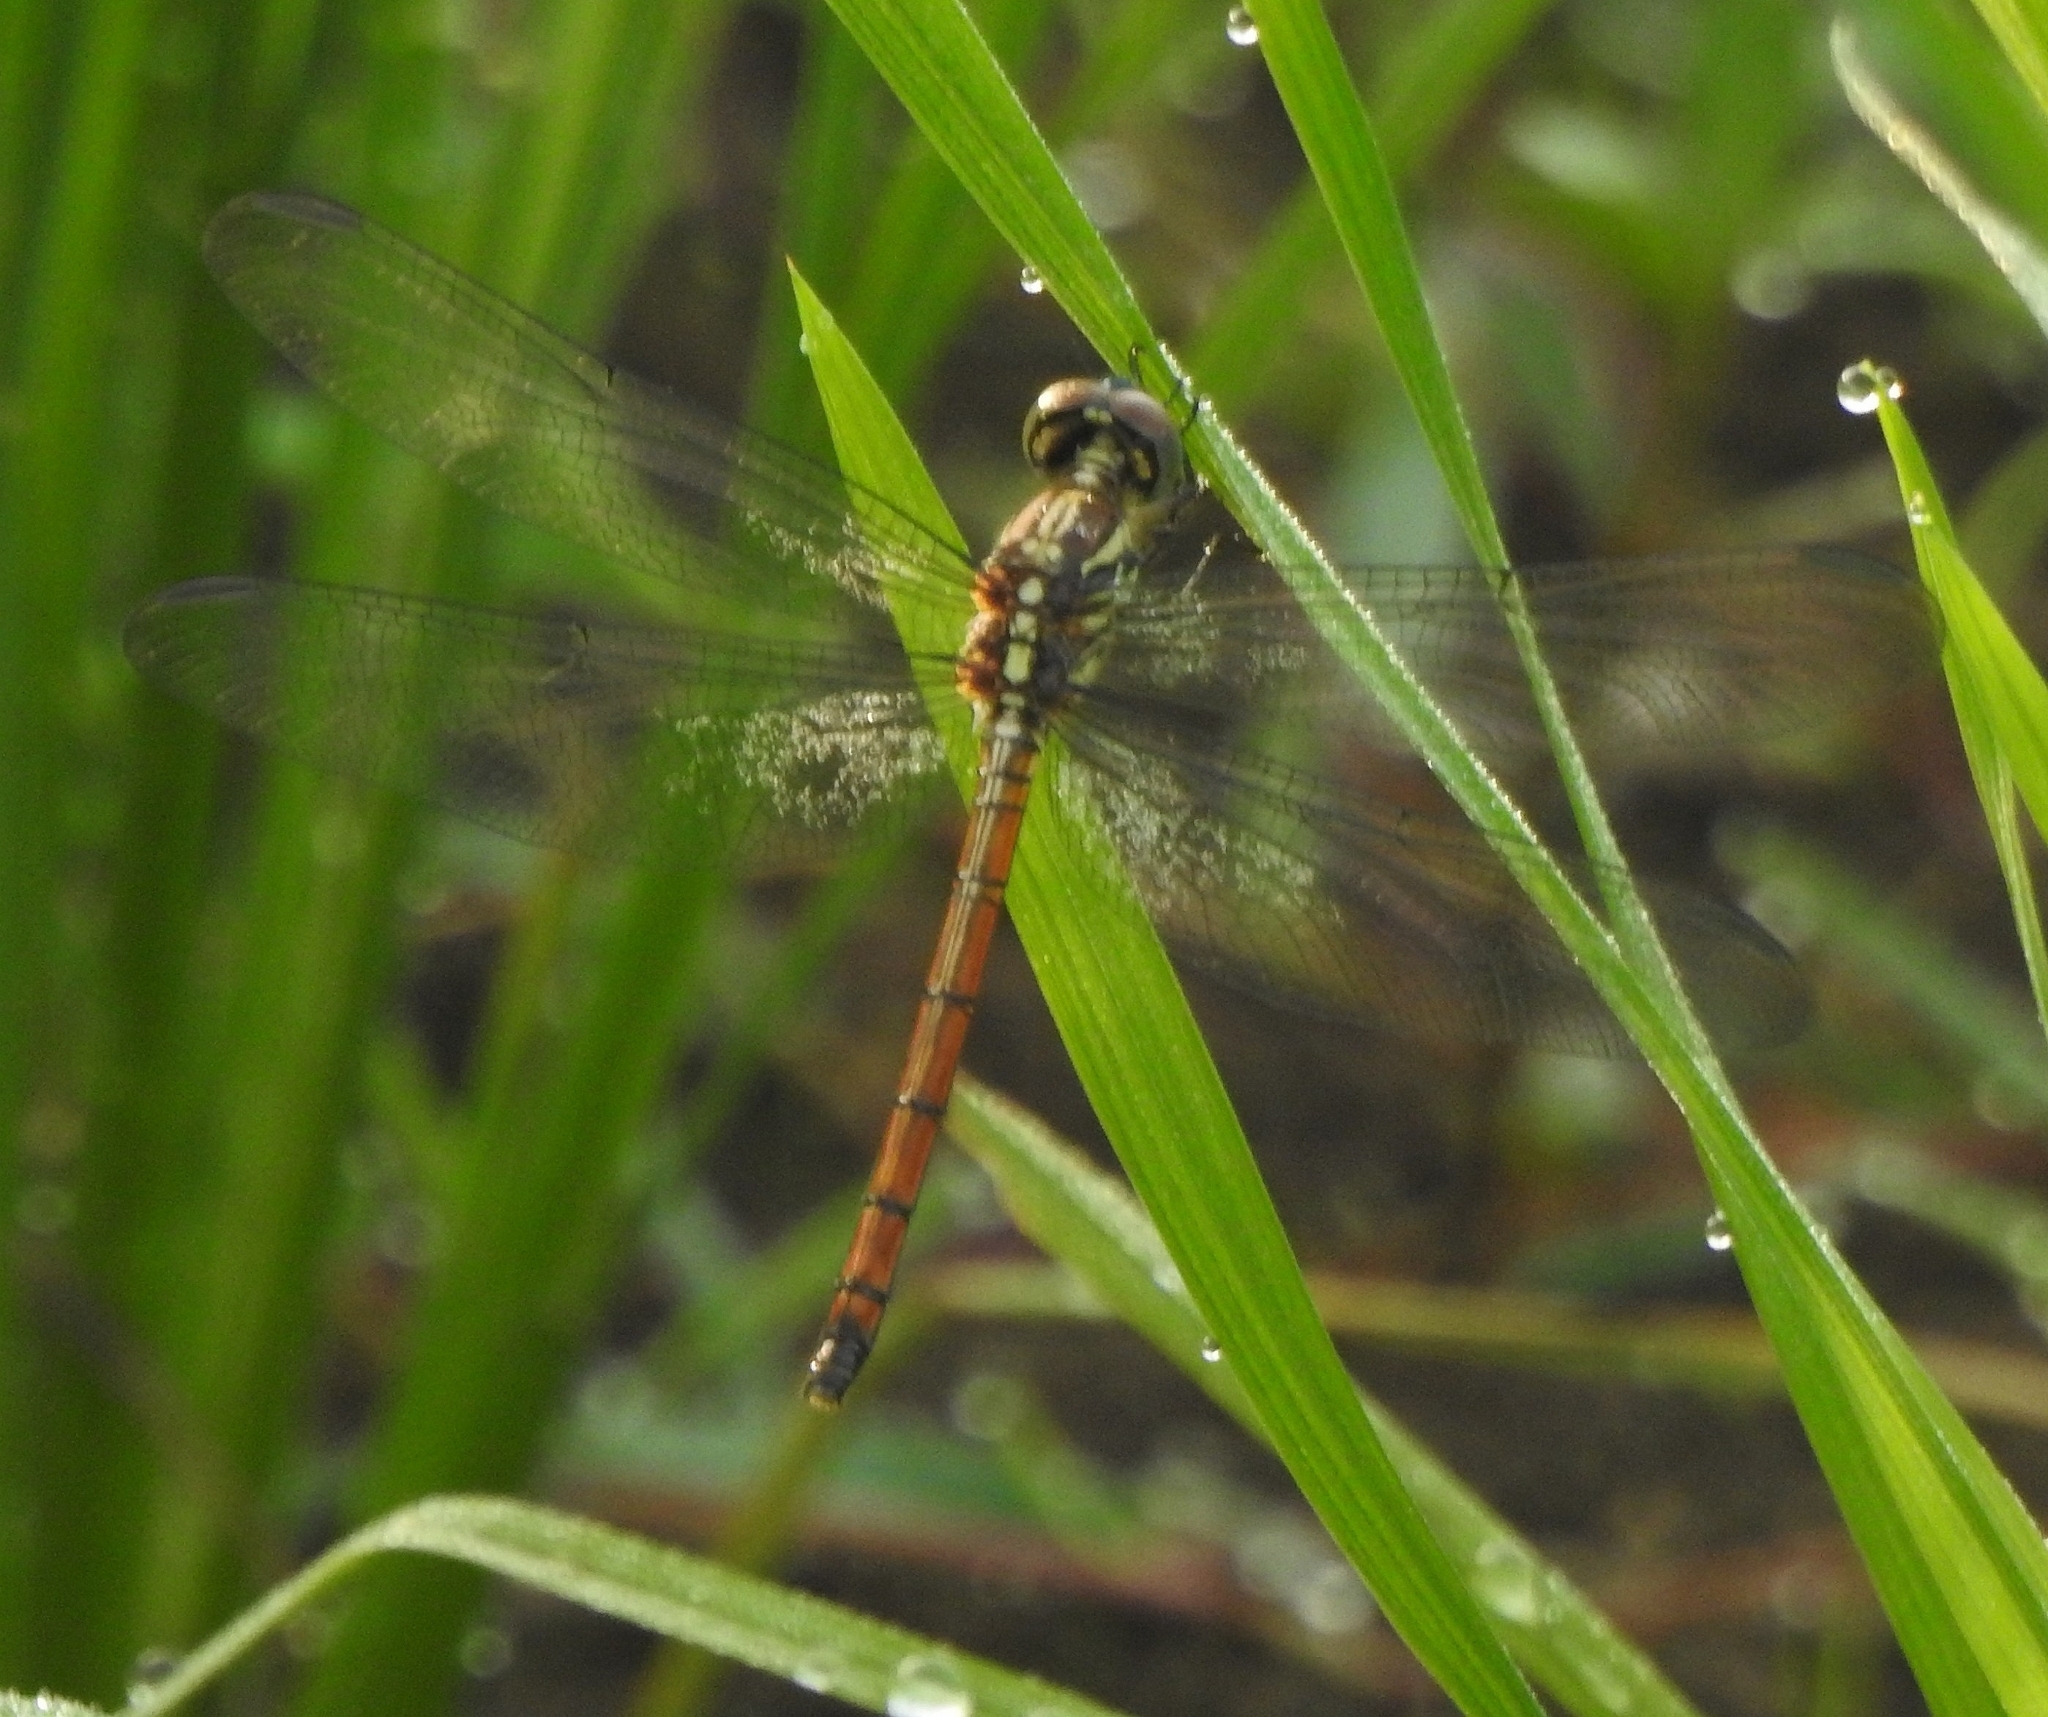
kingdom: Animalia
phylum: Arthropoda
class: Insecta
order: Odonata
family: Libellulidae
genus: Lathrecista
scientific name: Lathrecista asiatica
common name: Scarlet grenadier
